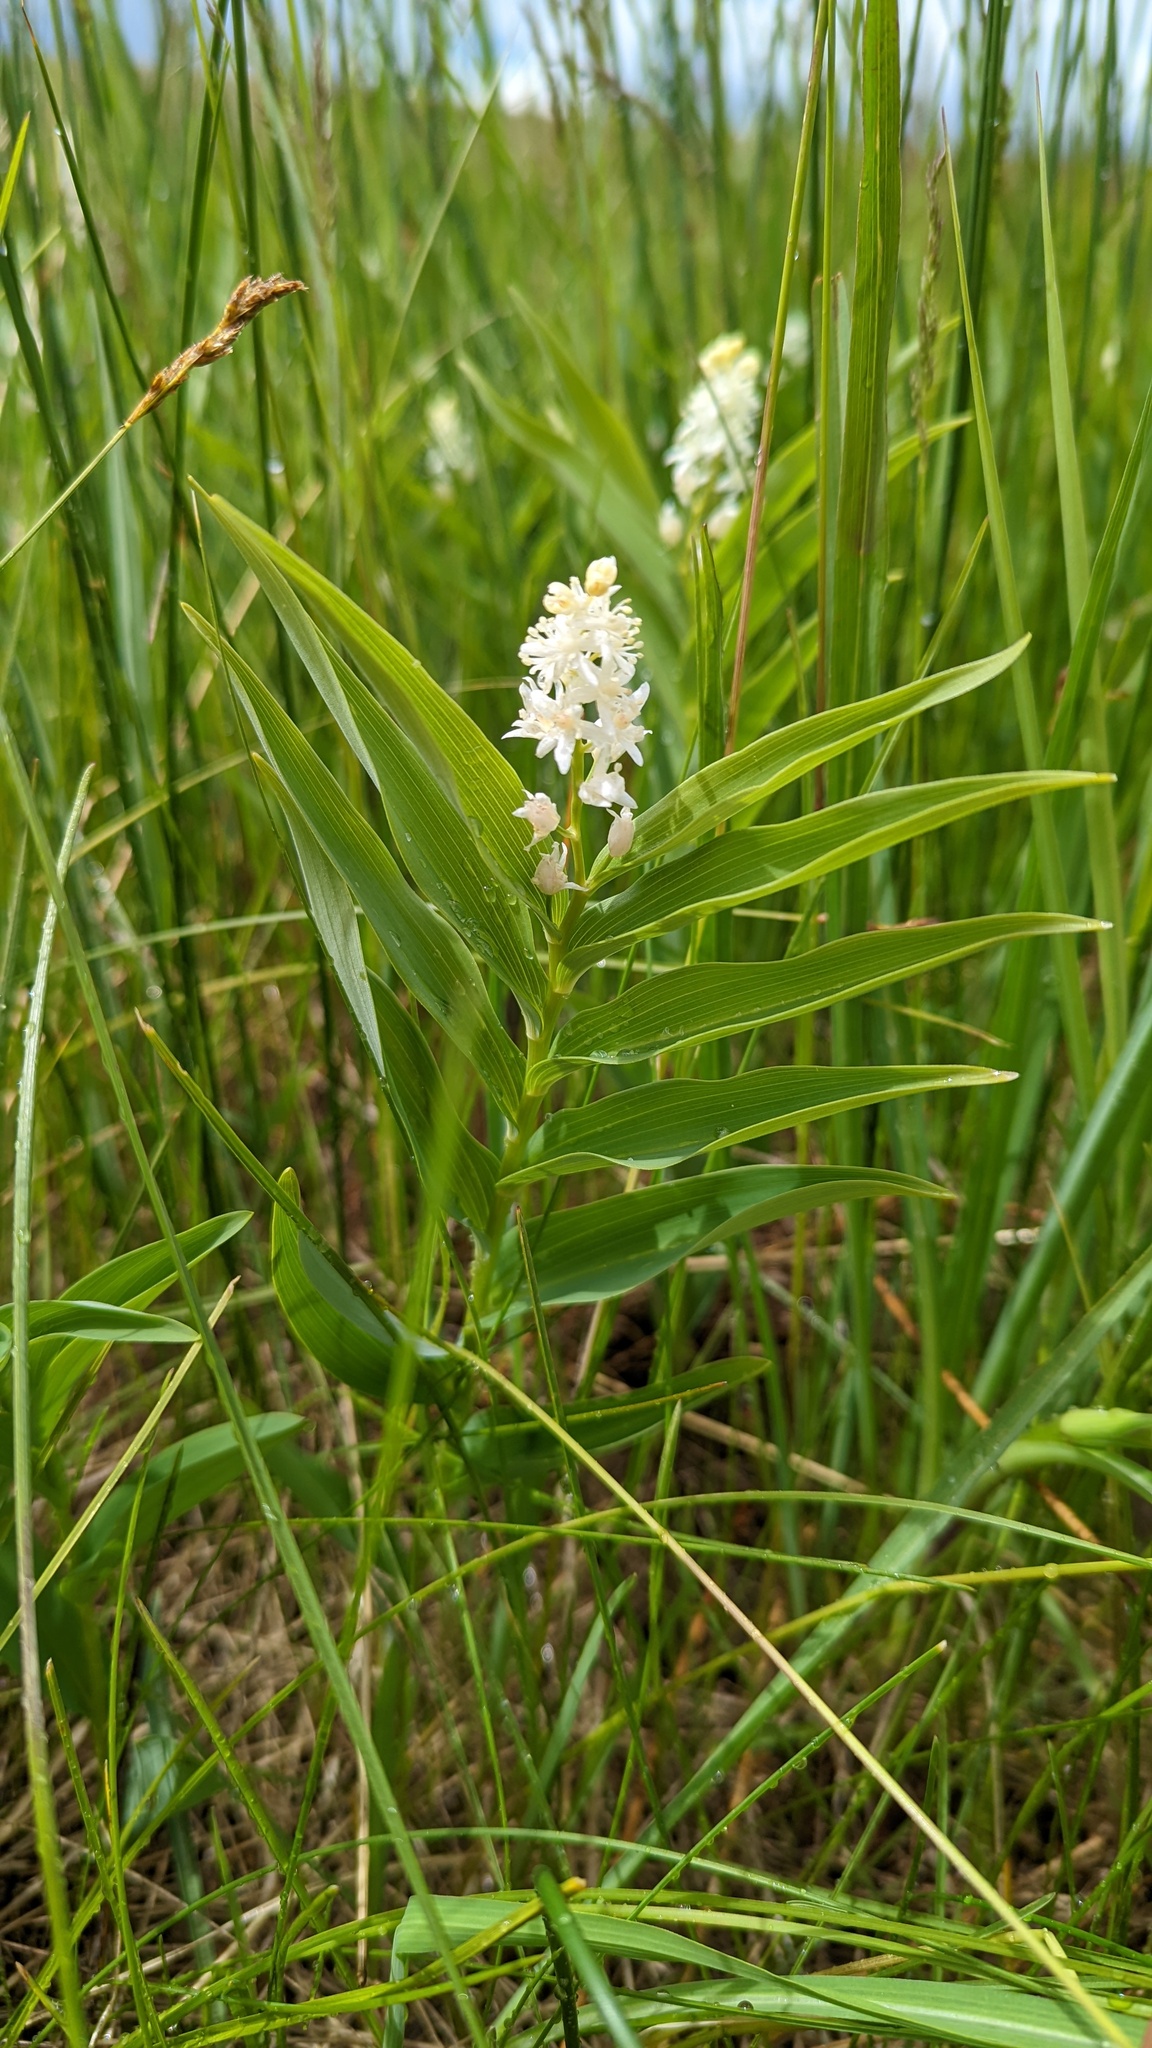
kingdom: Plantae
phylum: Tracheophyta
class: Liliopsida
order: Asparagales
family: Asparagaceae
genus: Maianthemum
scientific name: Maianthemum stellatum
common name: Little false solomon's seal
